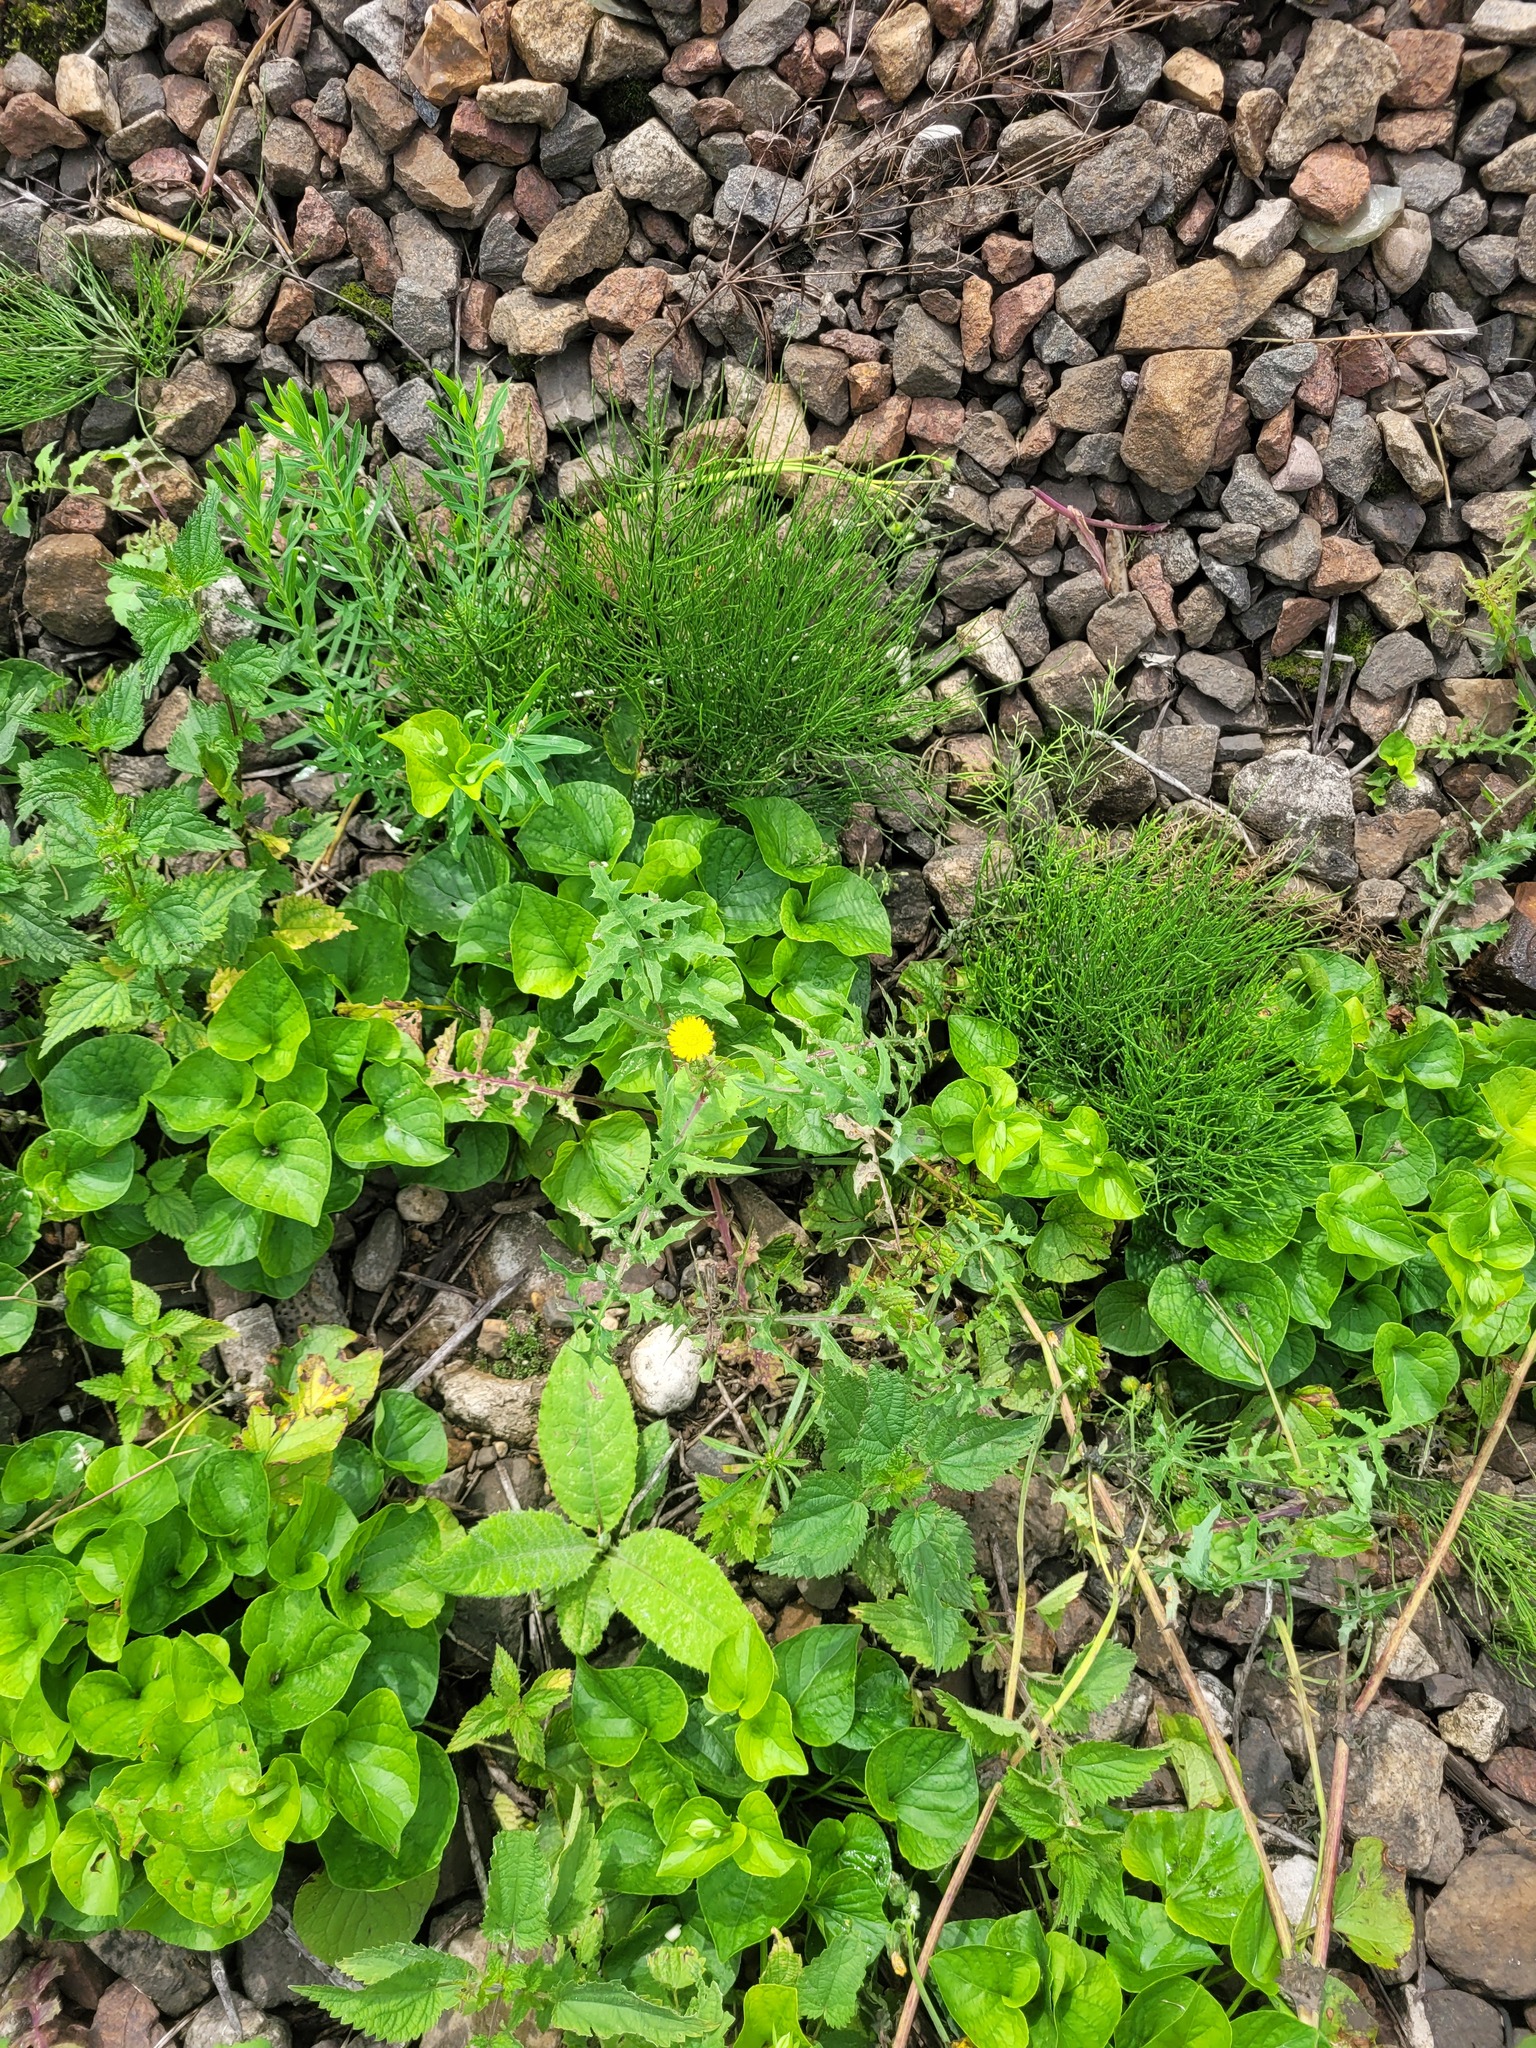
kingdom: Plantae
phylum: Tracheophyta
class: Magnoliopsida
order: Asterales
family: Asteraceae
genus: Sonchus
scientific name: Sonchus oleraceus
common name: Common sowthistle
